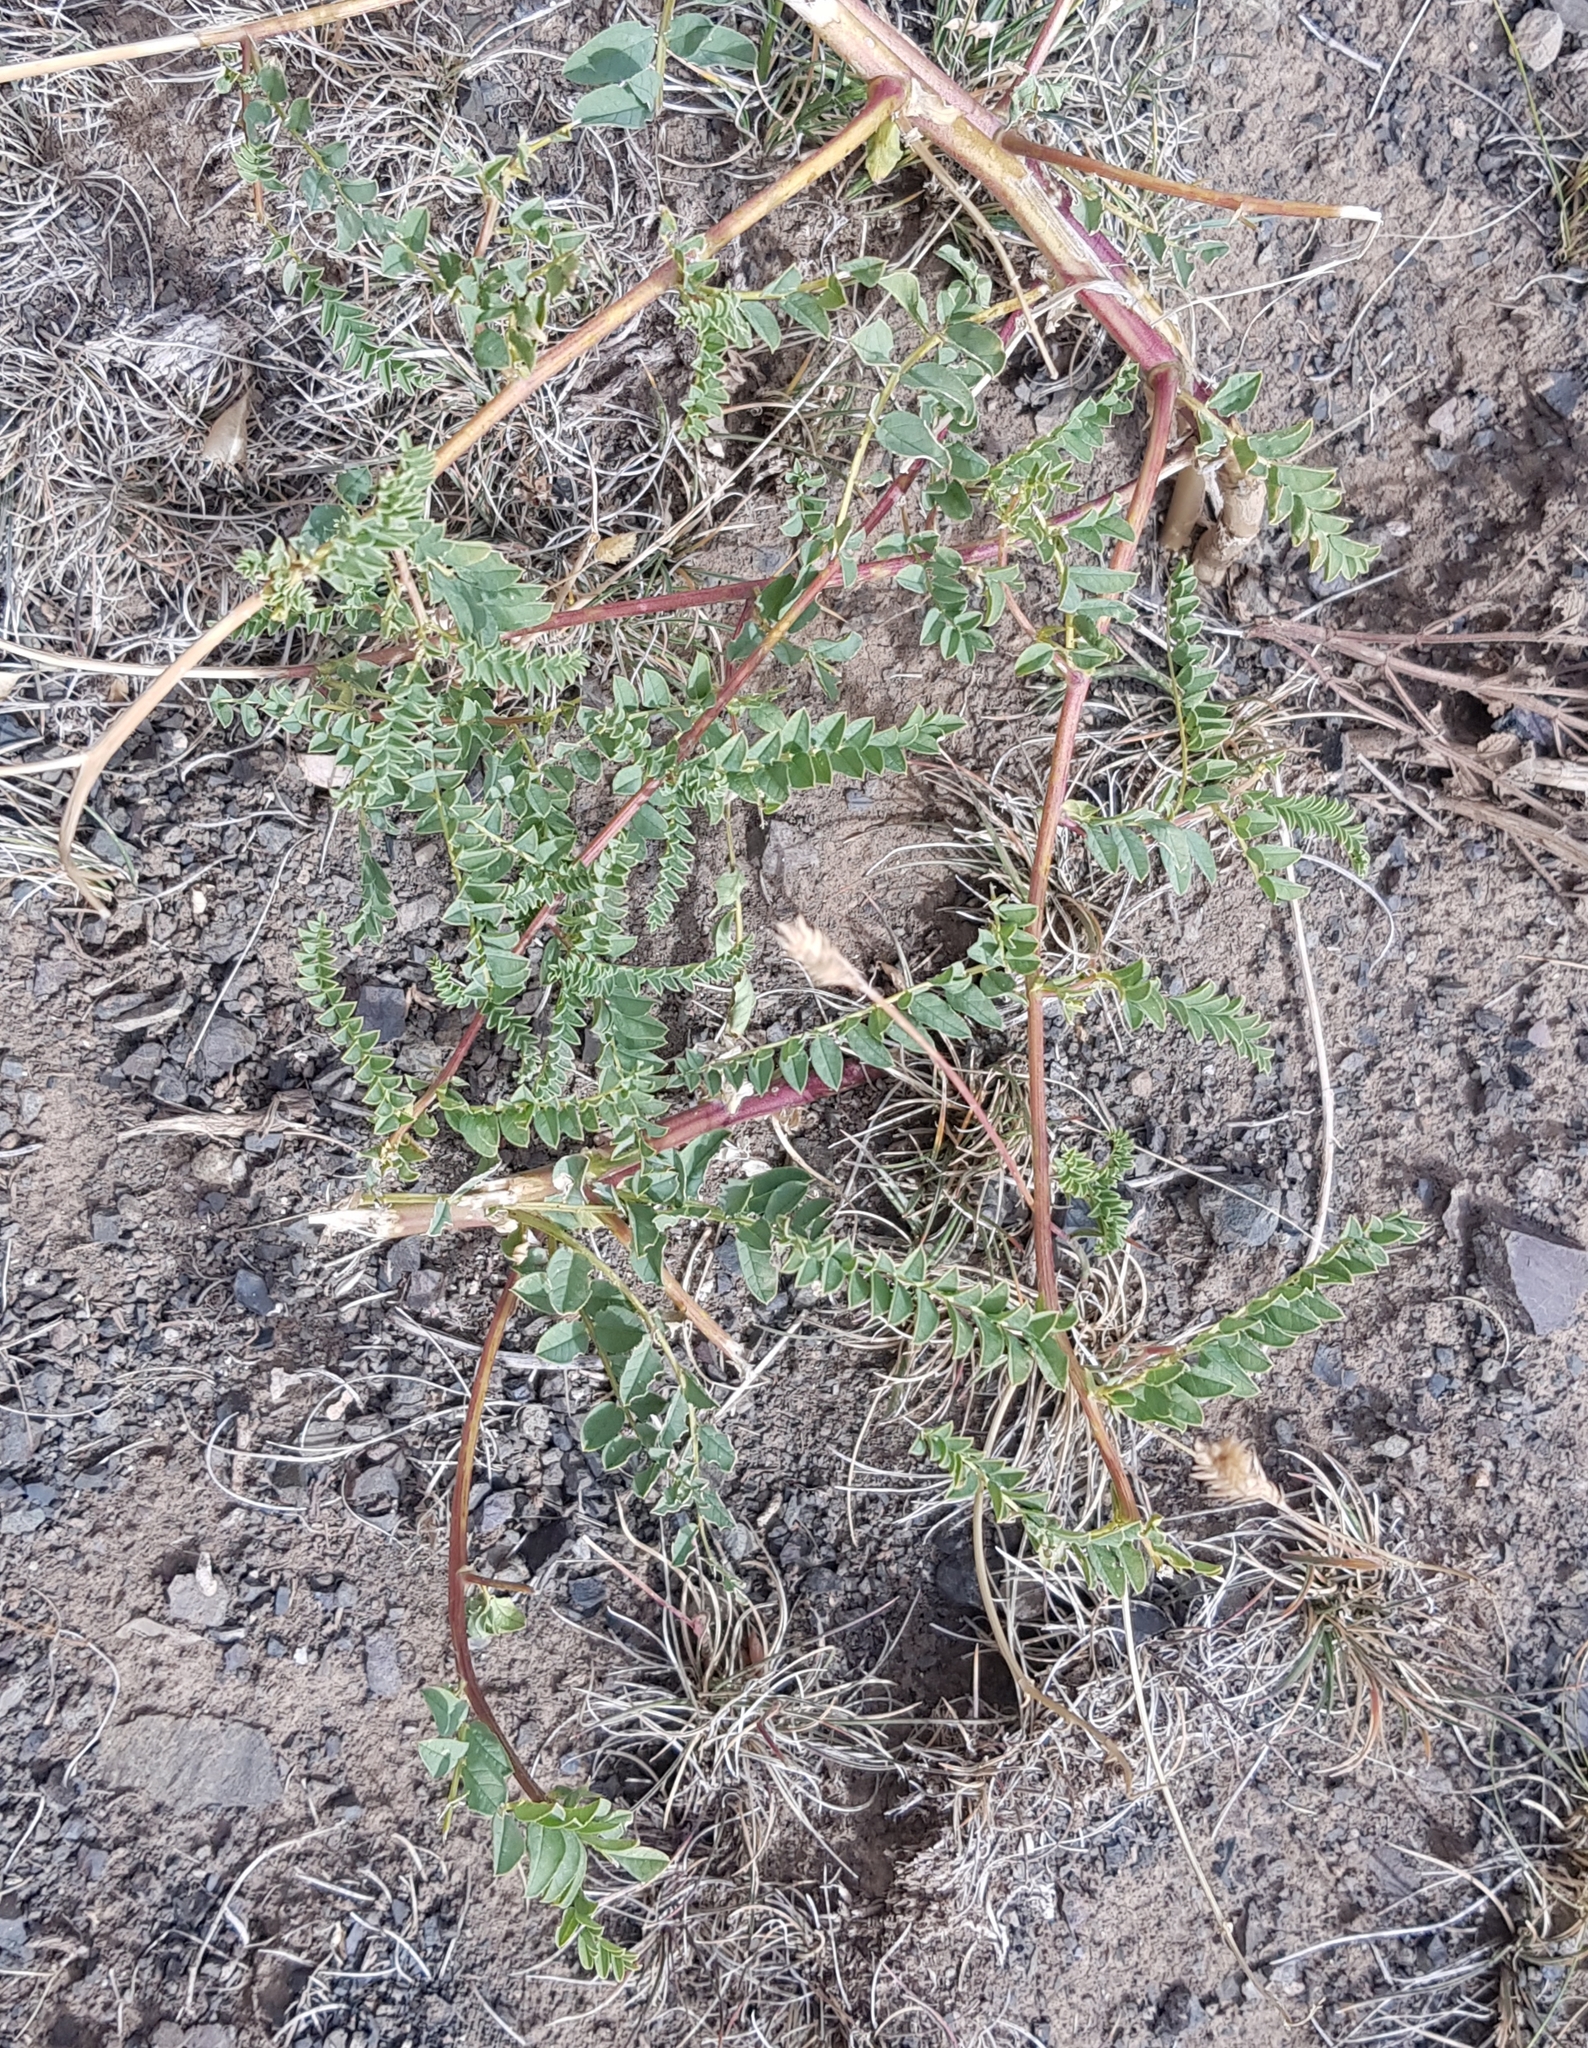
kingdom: Plantae
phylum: Tracheophyta
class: Magnoliopsida
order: Fabales
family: Fabaceae
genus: Astragalus
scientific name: Astragalus chinensis
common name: Chinese milkvetch
